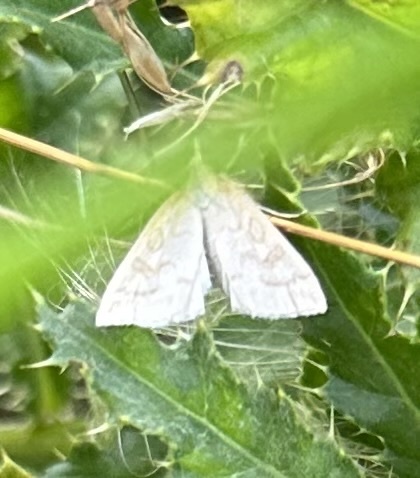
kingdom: Animalia
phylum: Arthropoda
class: Insecta
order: Lepidoptera
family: Crambidae
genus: Udea
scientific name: Udea lutealis
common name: Pale straw pearl
